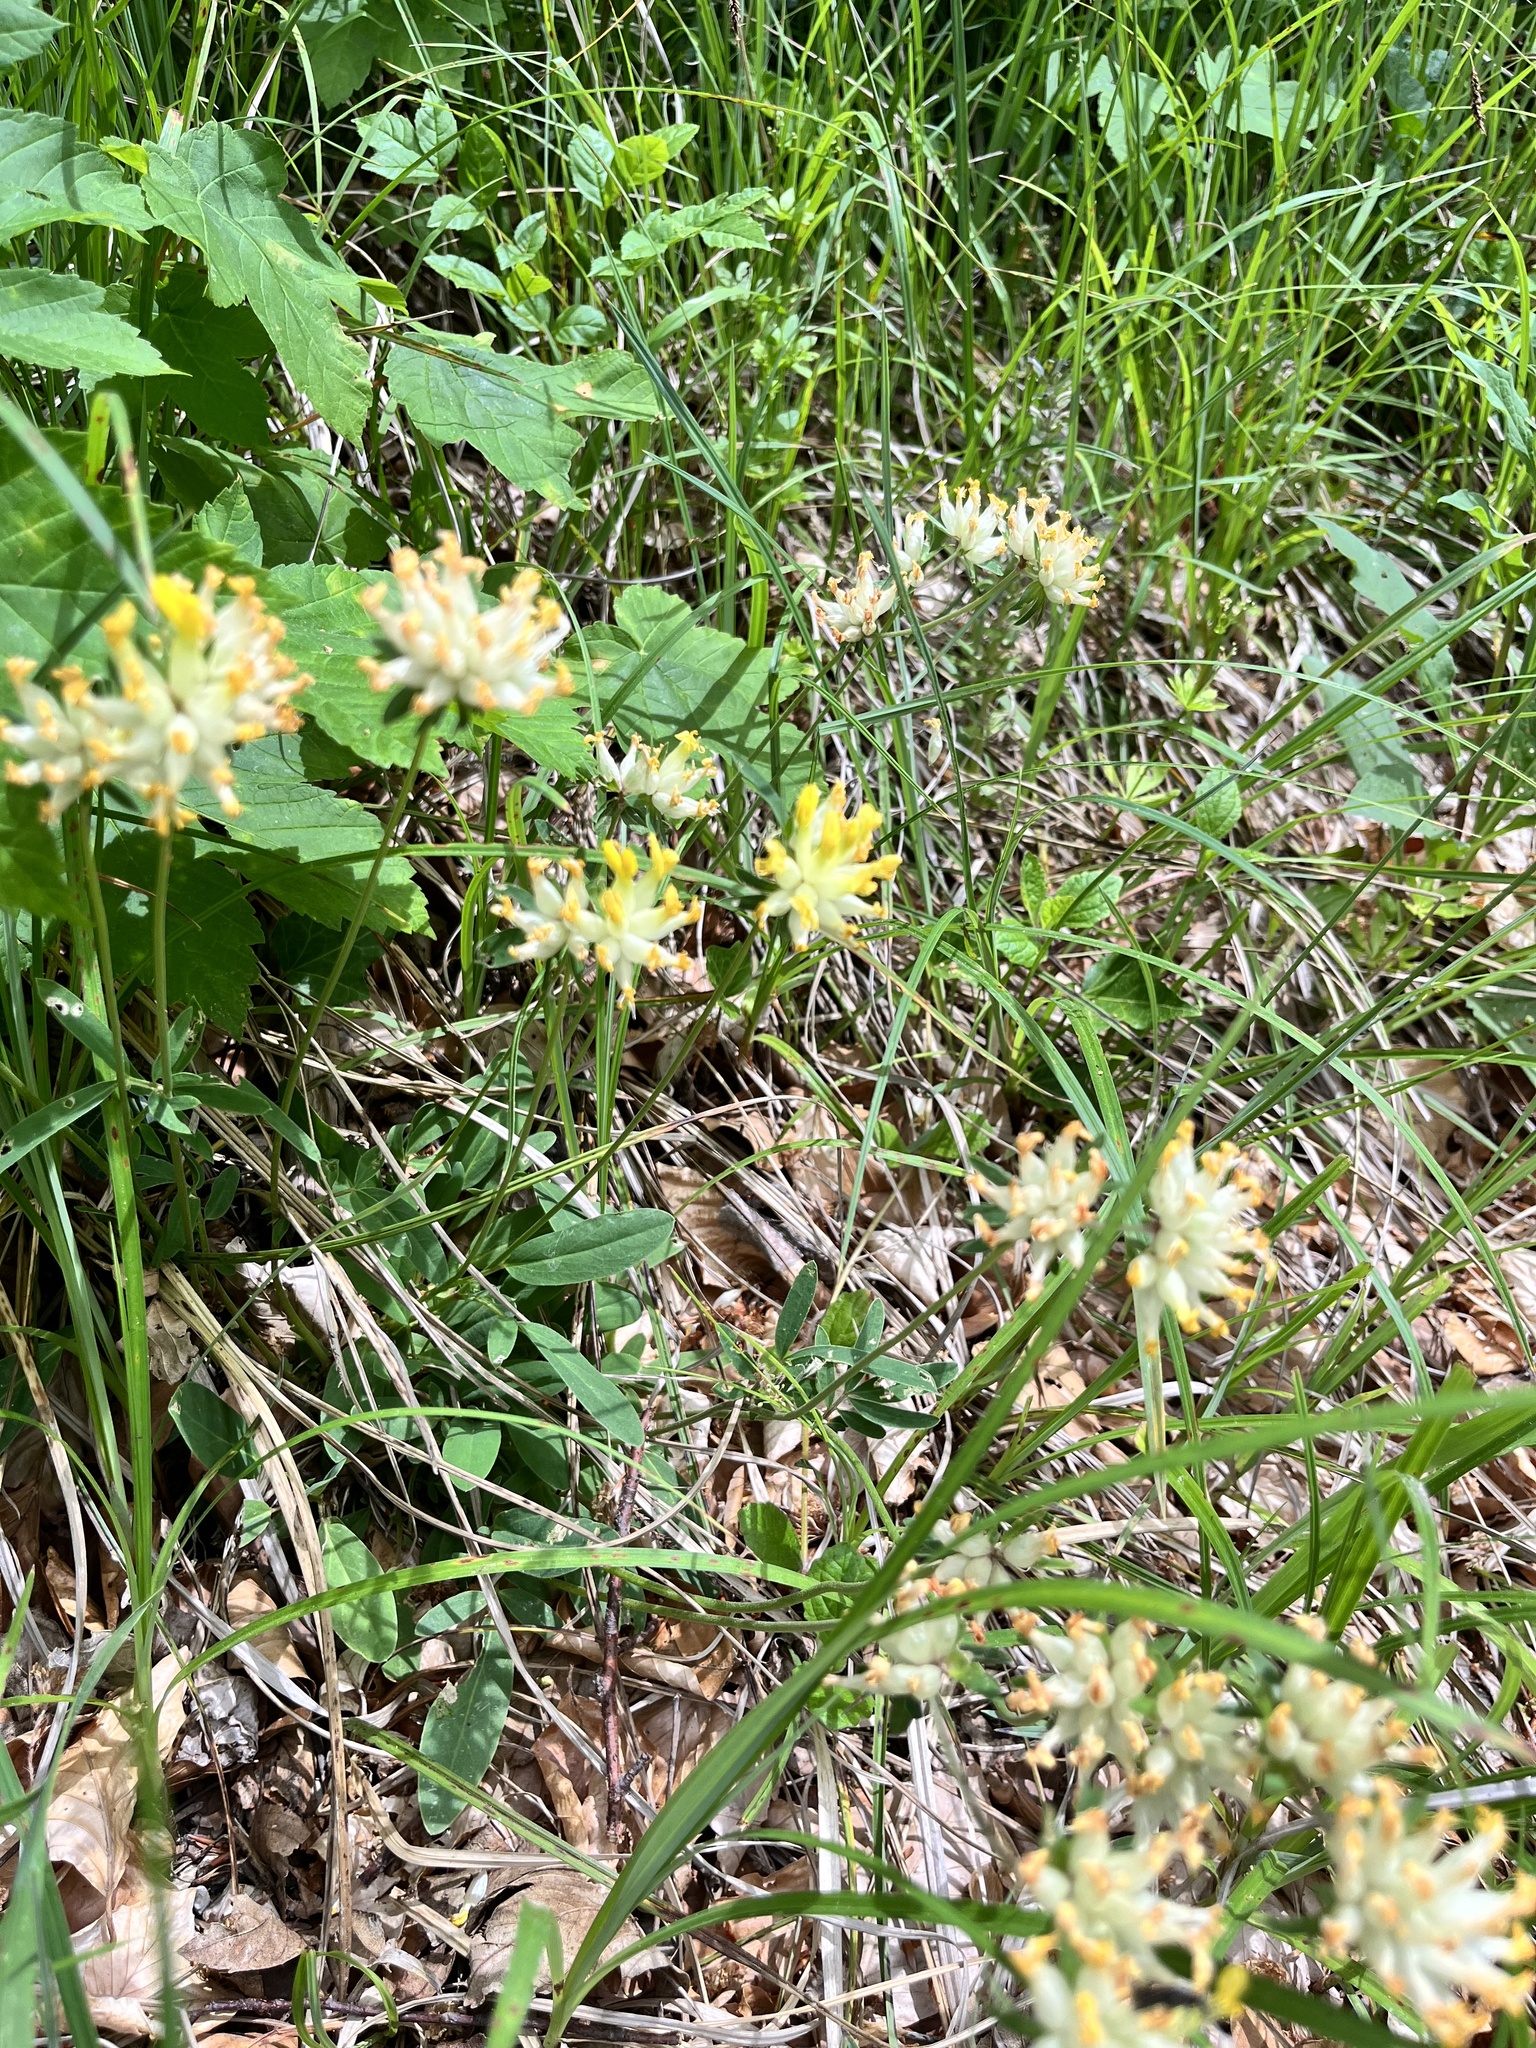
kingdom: Plantae
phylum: Tracheophyta
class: Magnoliopsida
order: Fabales
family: Fabaceae
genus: Anthyllis
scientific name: Anthyllis vulneraria
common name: Kidney vetch
